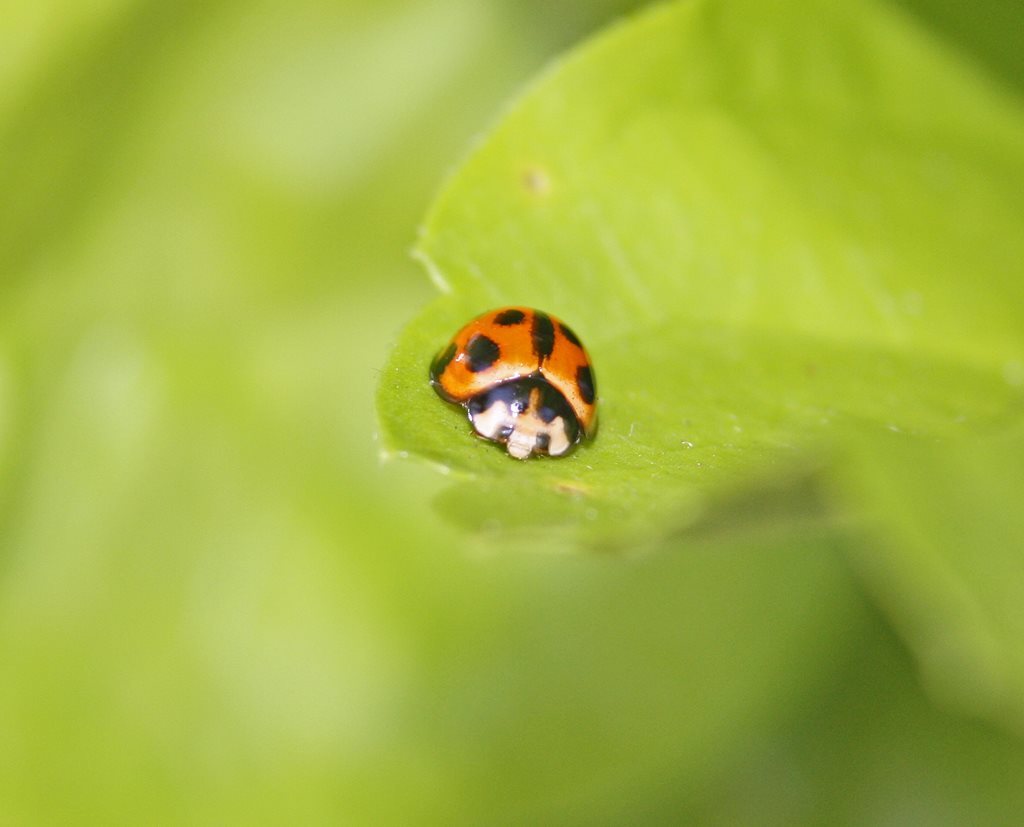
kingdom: Animalia
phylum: Arthropoda
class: Insecta
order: Coleoptera
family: Coccinellidae
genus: Coelophora
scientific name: Coelophora inaequalis
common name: Common australian lady beetle
